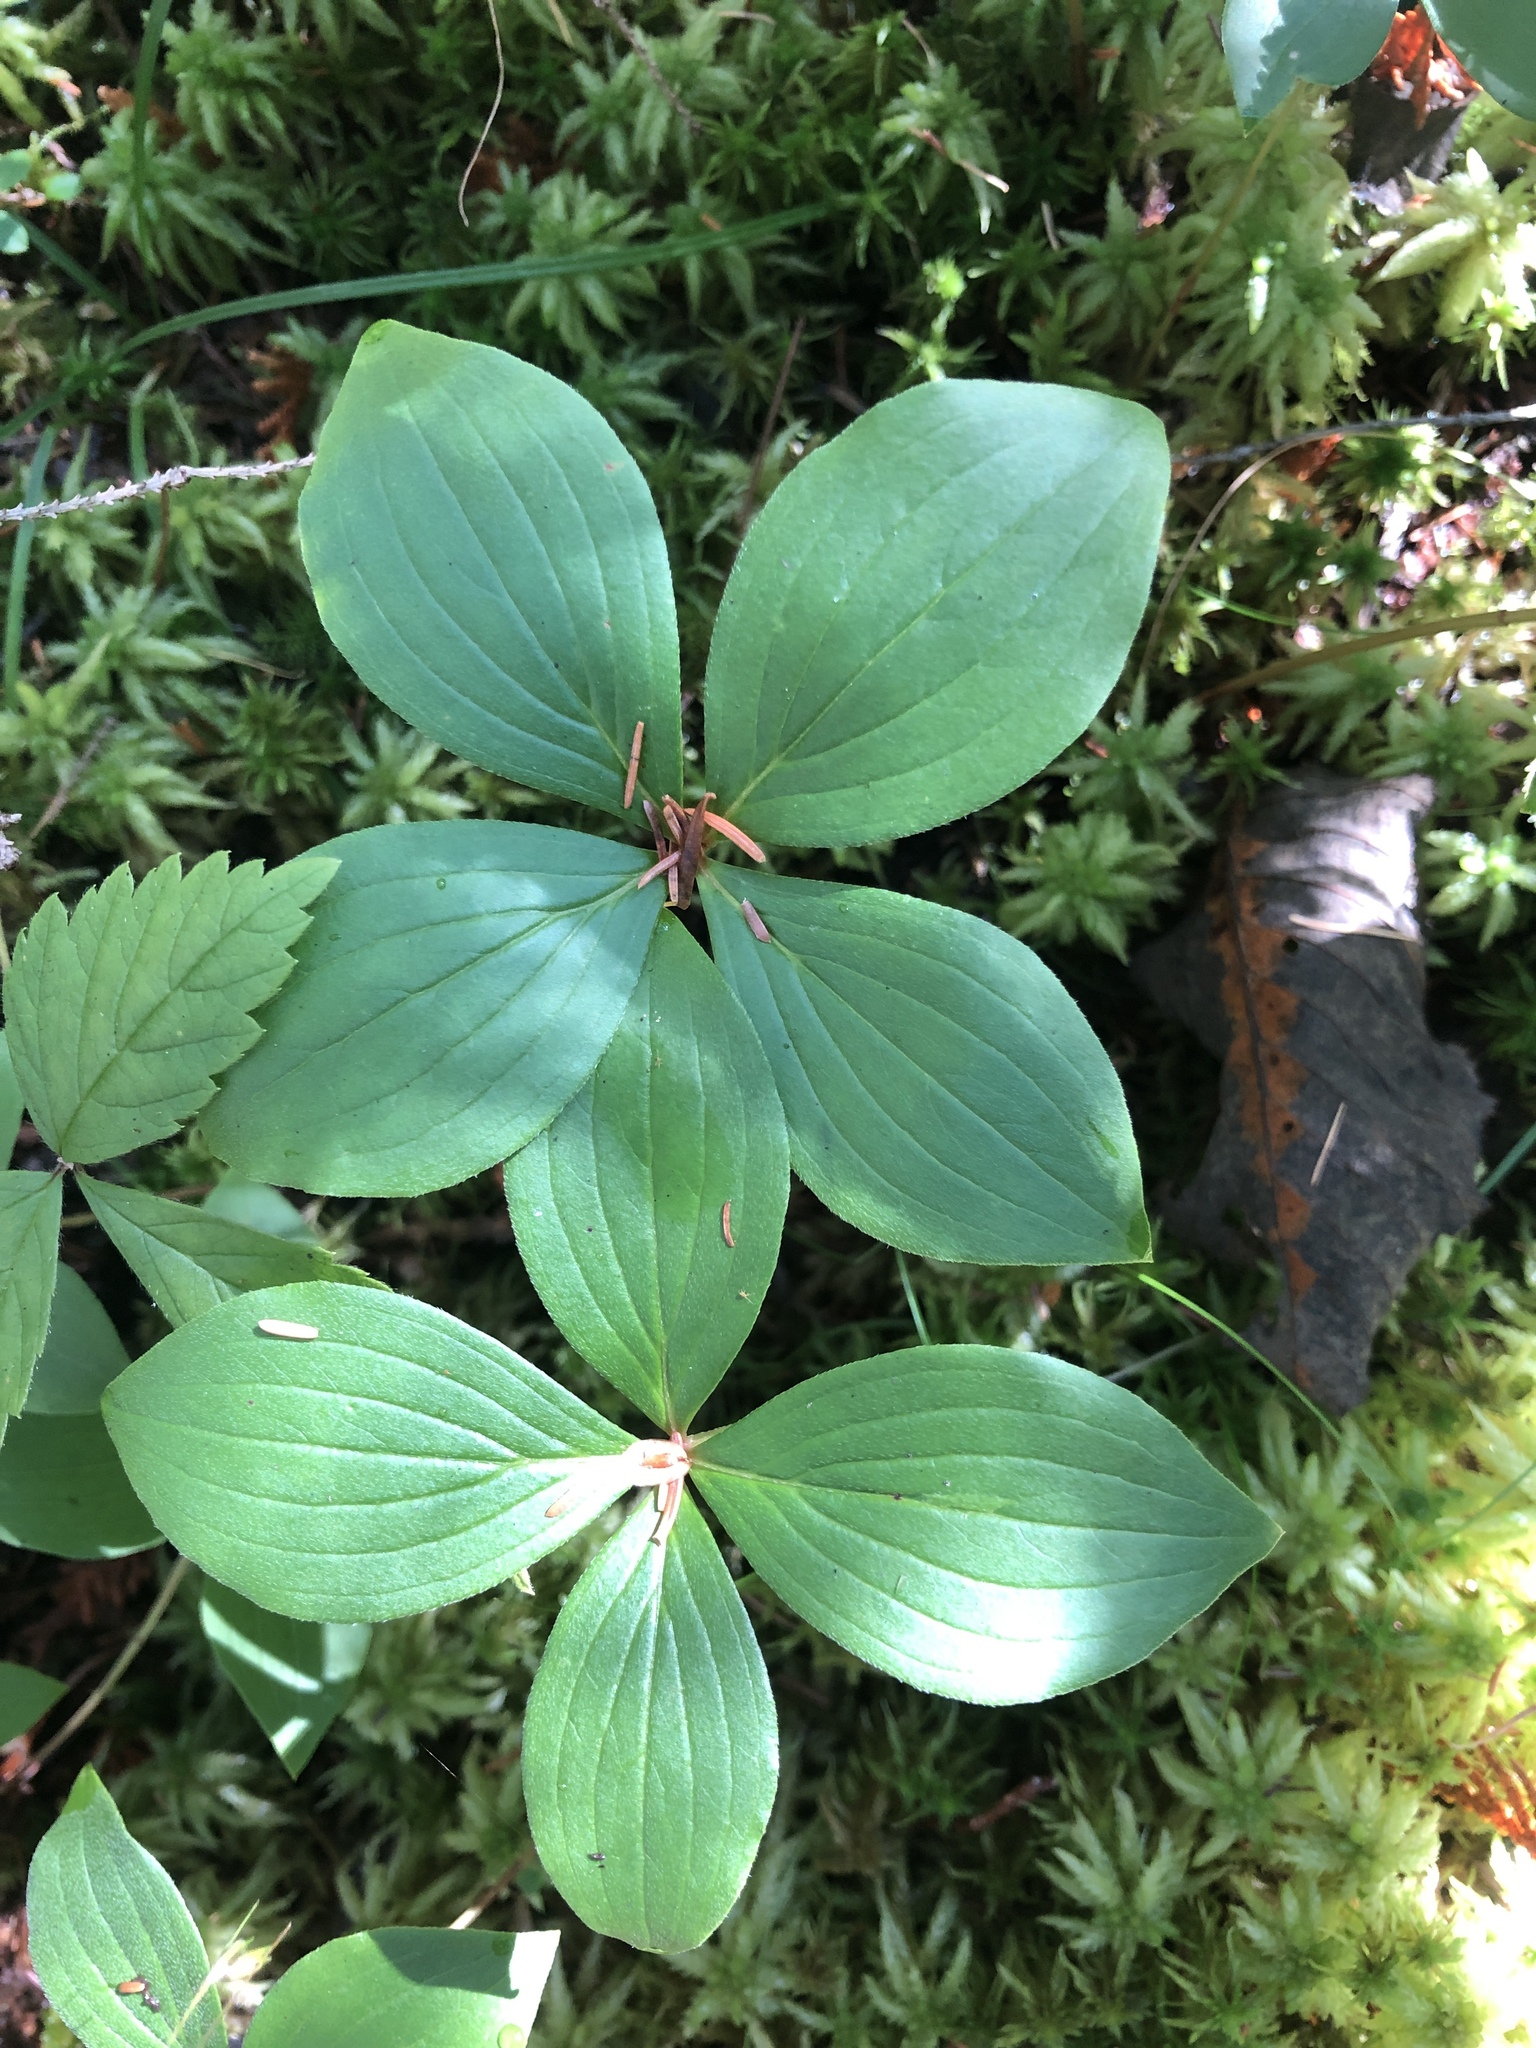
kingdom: Plantae
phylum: Tracheophyta
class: Magnoliopsida
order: Cornales
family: Cornaceae
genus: Cornus
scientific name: Cornus canadensis
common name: Creeping dogwood
